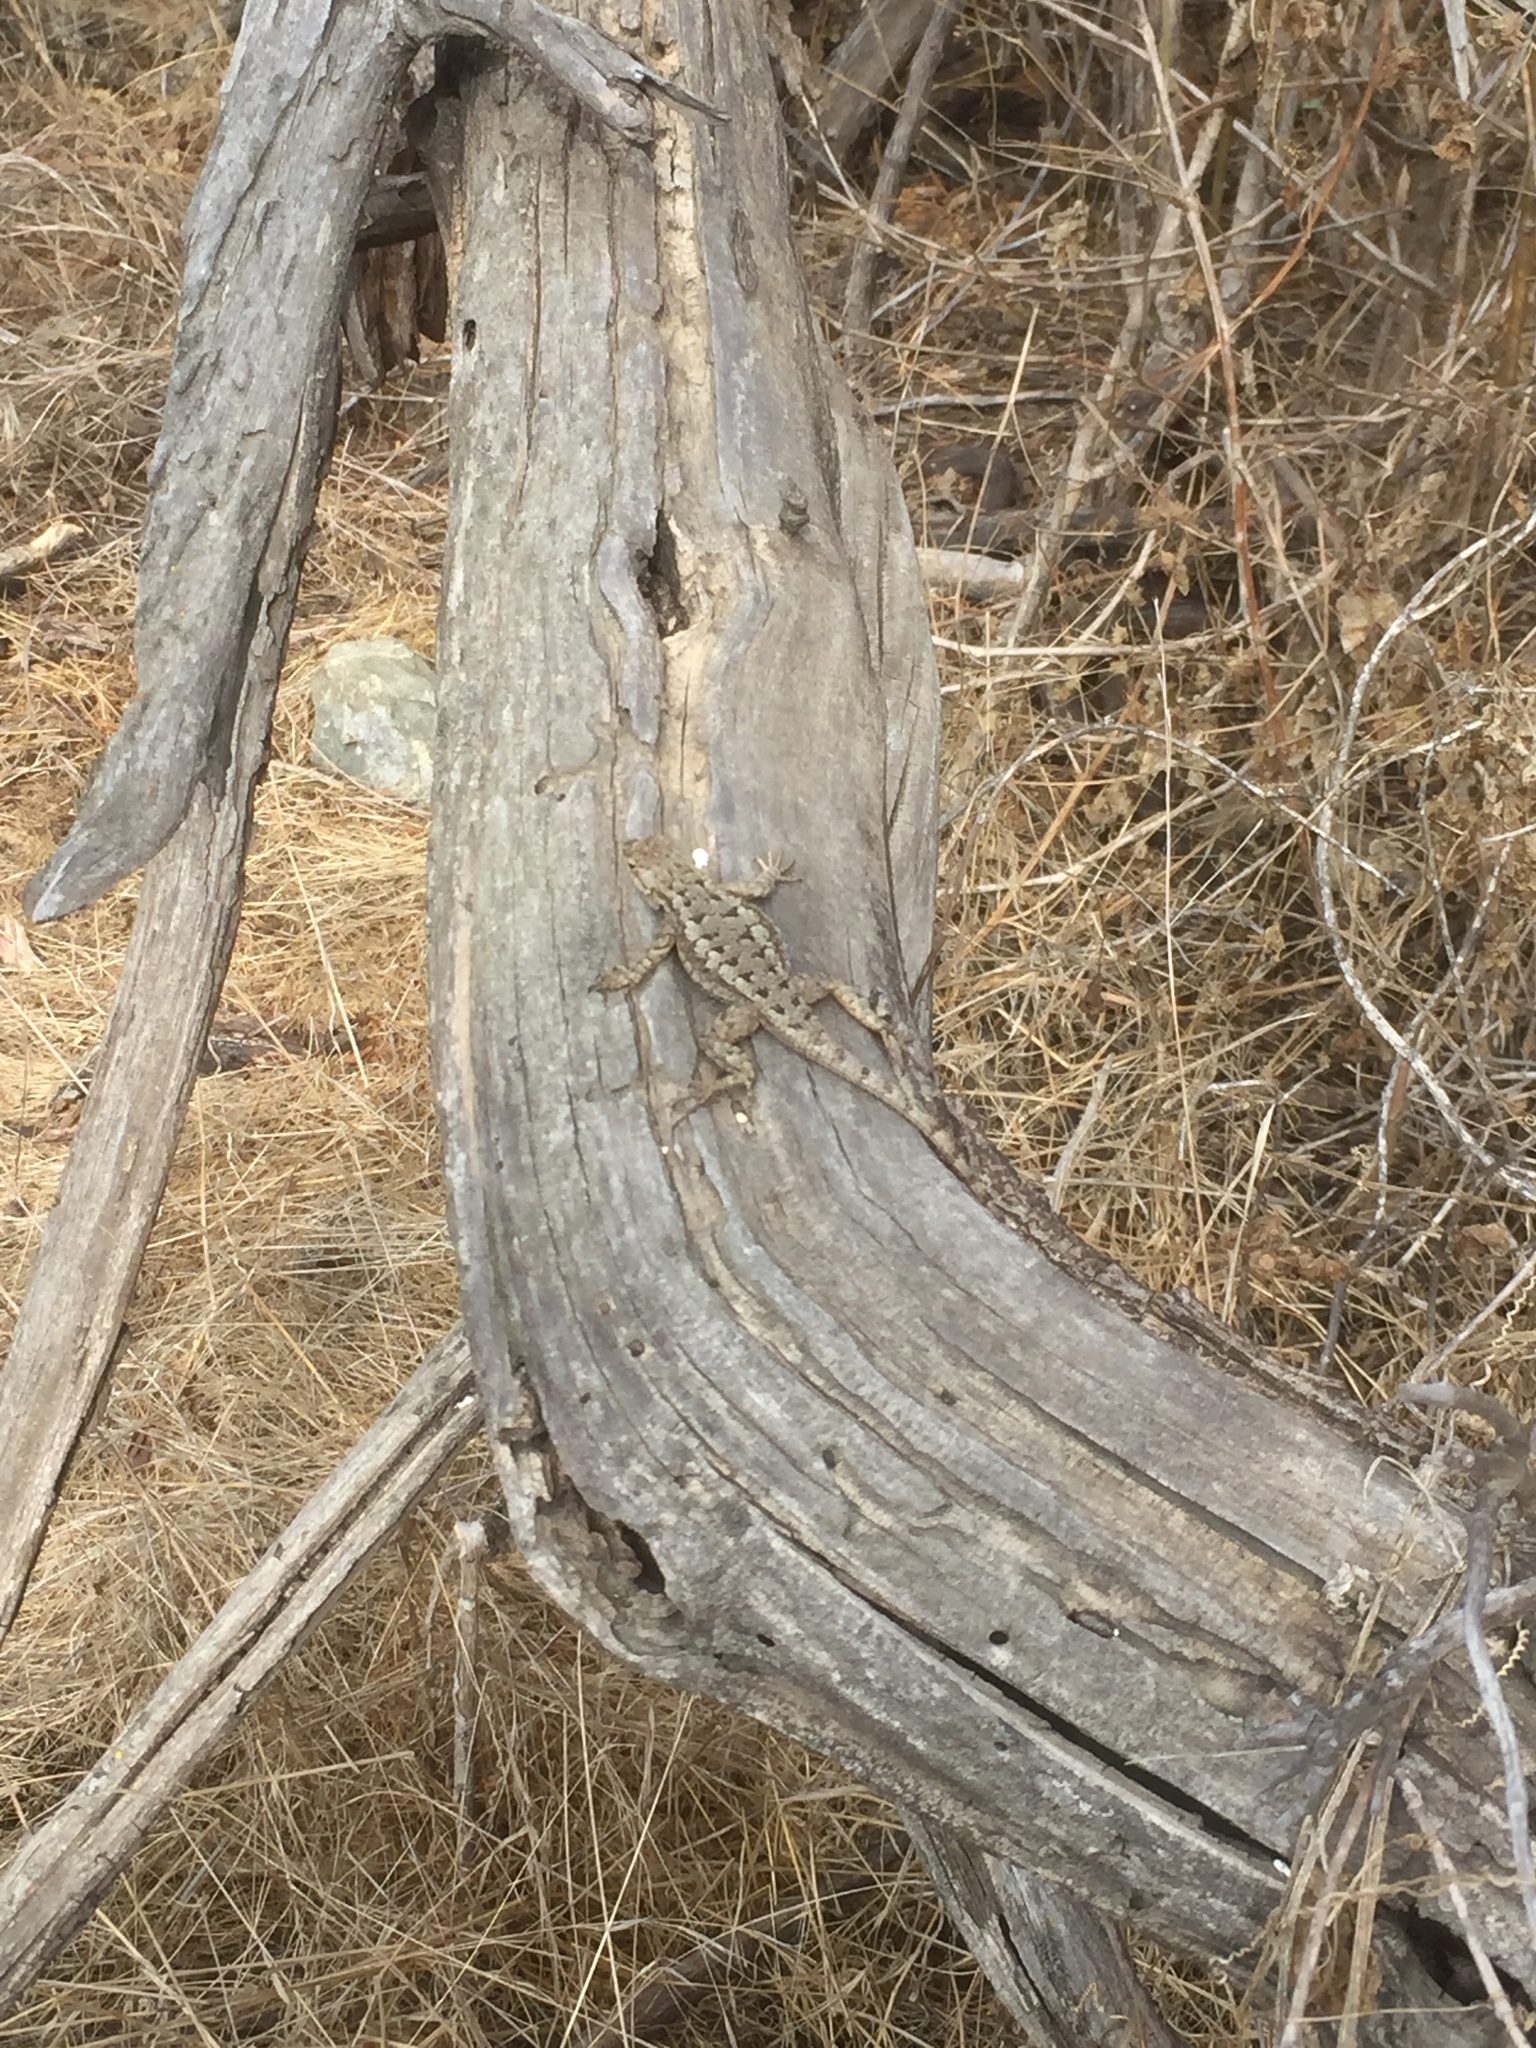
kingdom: Animalia
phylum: Chordata
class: Squamata
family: Phrynosomatidae
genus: Sceloporus
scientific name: Sceloporus occidentalis
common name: Western fence lizard
